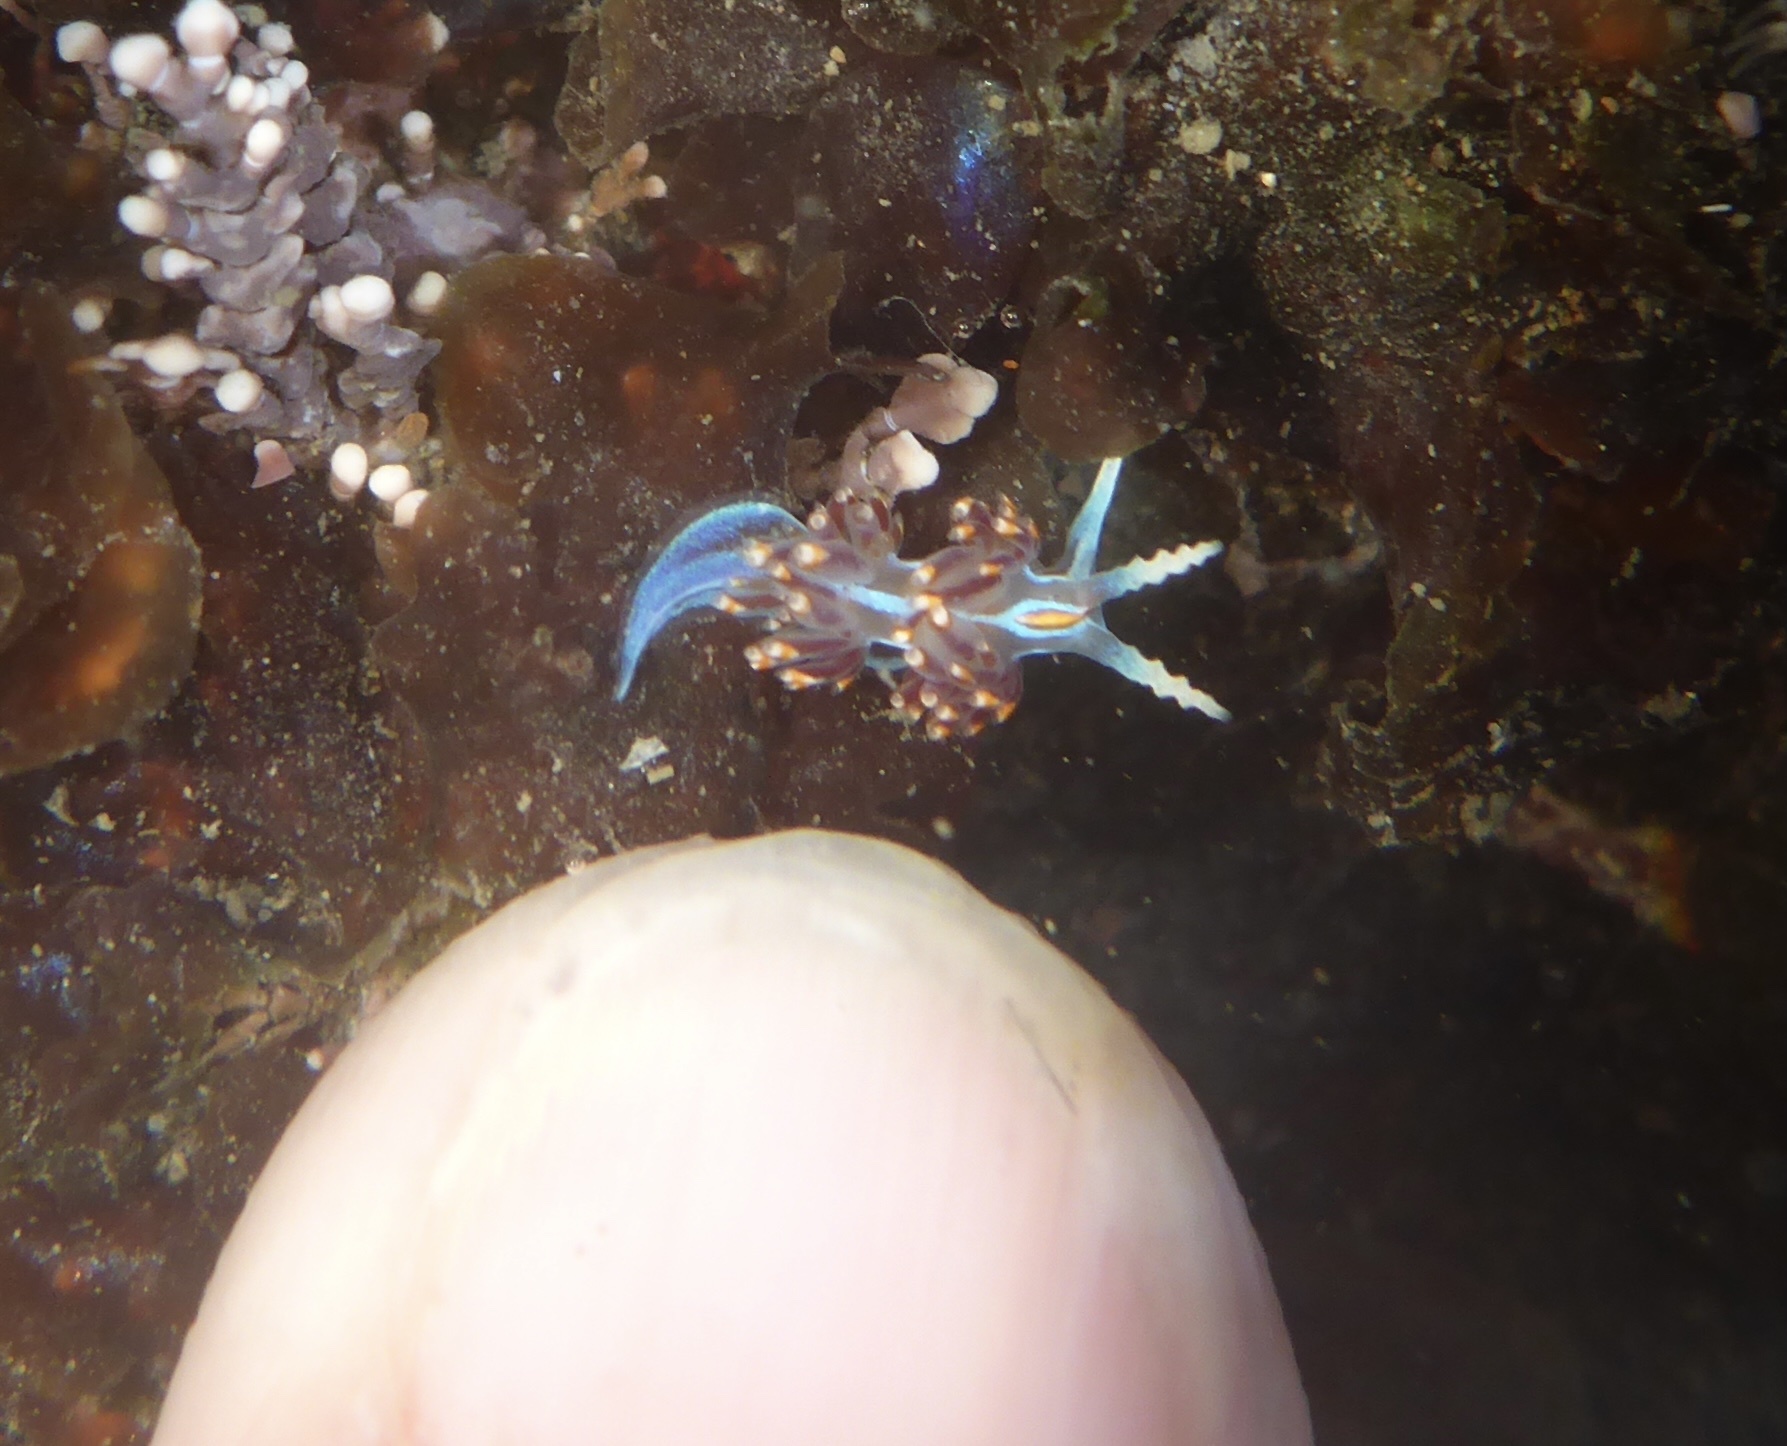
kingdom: Animalia
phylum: Mollusca
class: Gastropoda
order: Nudibranchia
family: Myrrhinidae
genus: Hermissenda
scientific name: Hermissenda opalescens
